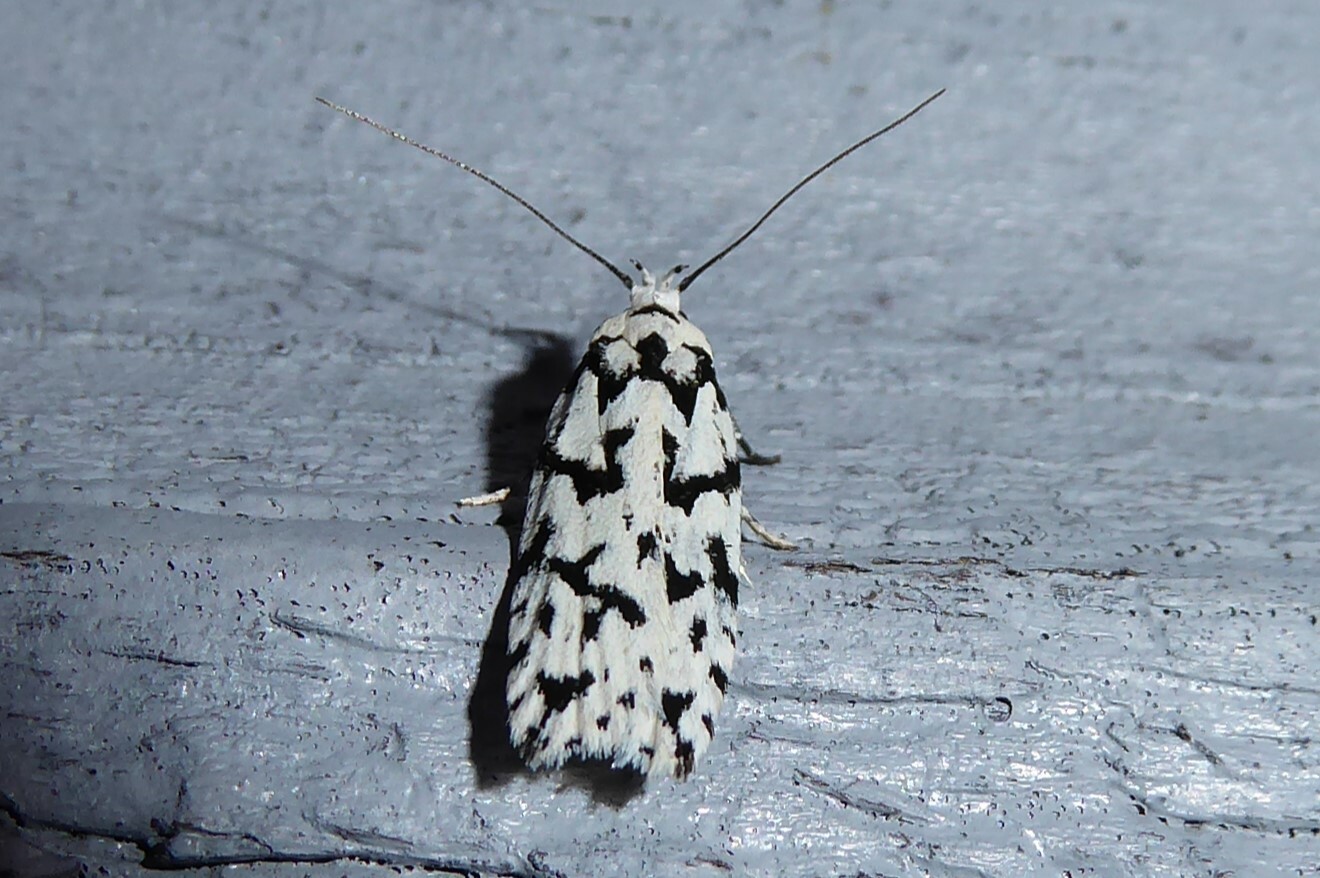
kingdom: Animalia
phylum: Arthropoda
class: Insecta
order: Lepidoptera
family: Oecophoridae
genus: Izatha
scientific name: Izatha katadiktya
